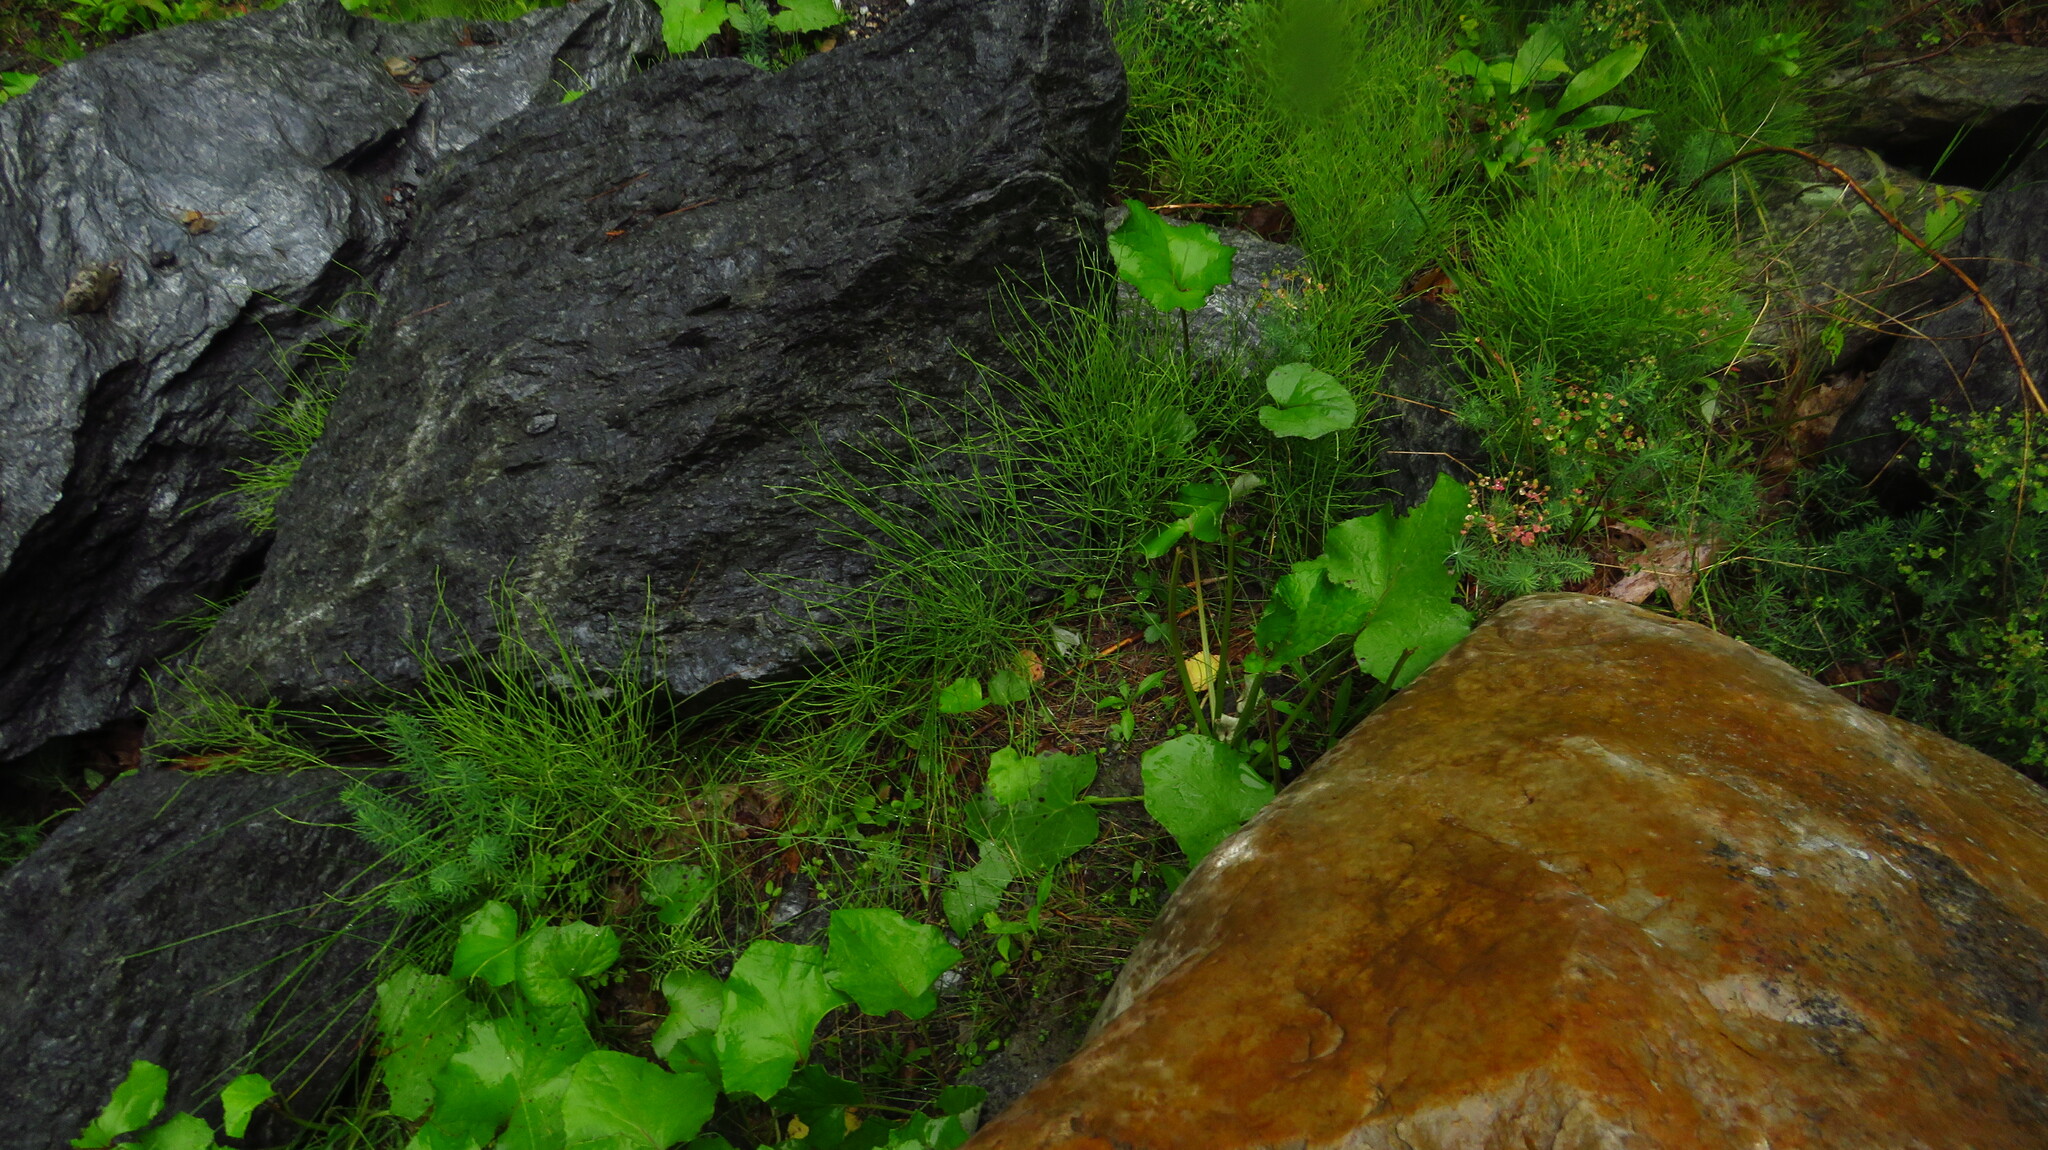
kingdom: Plantae
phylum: Tracheophyta
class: Polypodiopsida
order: Equisetales
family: Equisetaceae
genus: Equisetum
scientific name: Equisetum arvense
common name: Field horsetail
